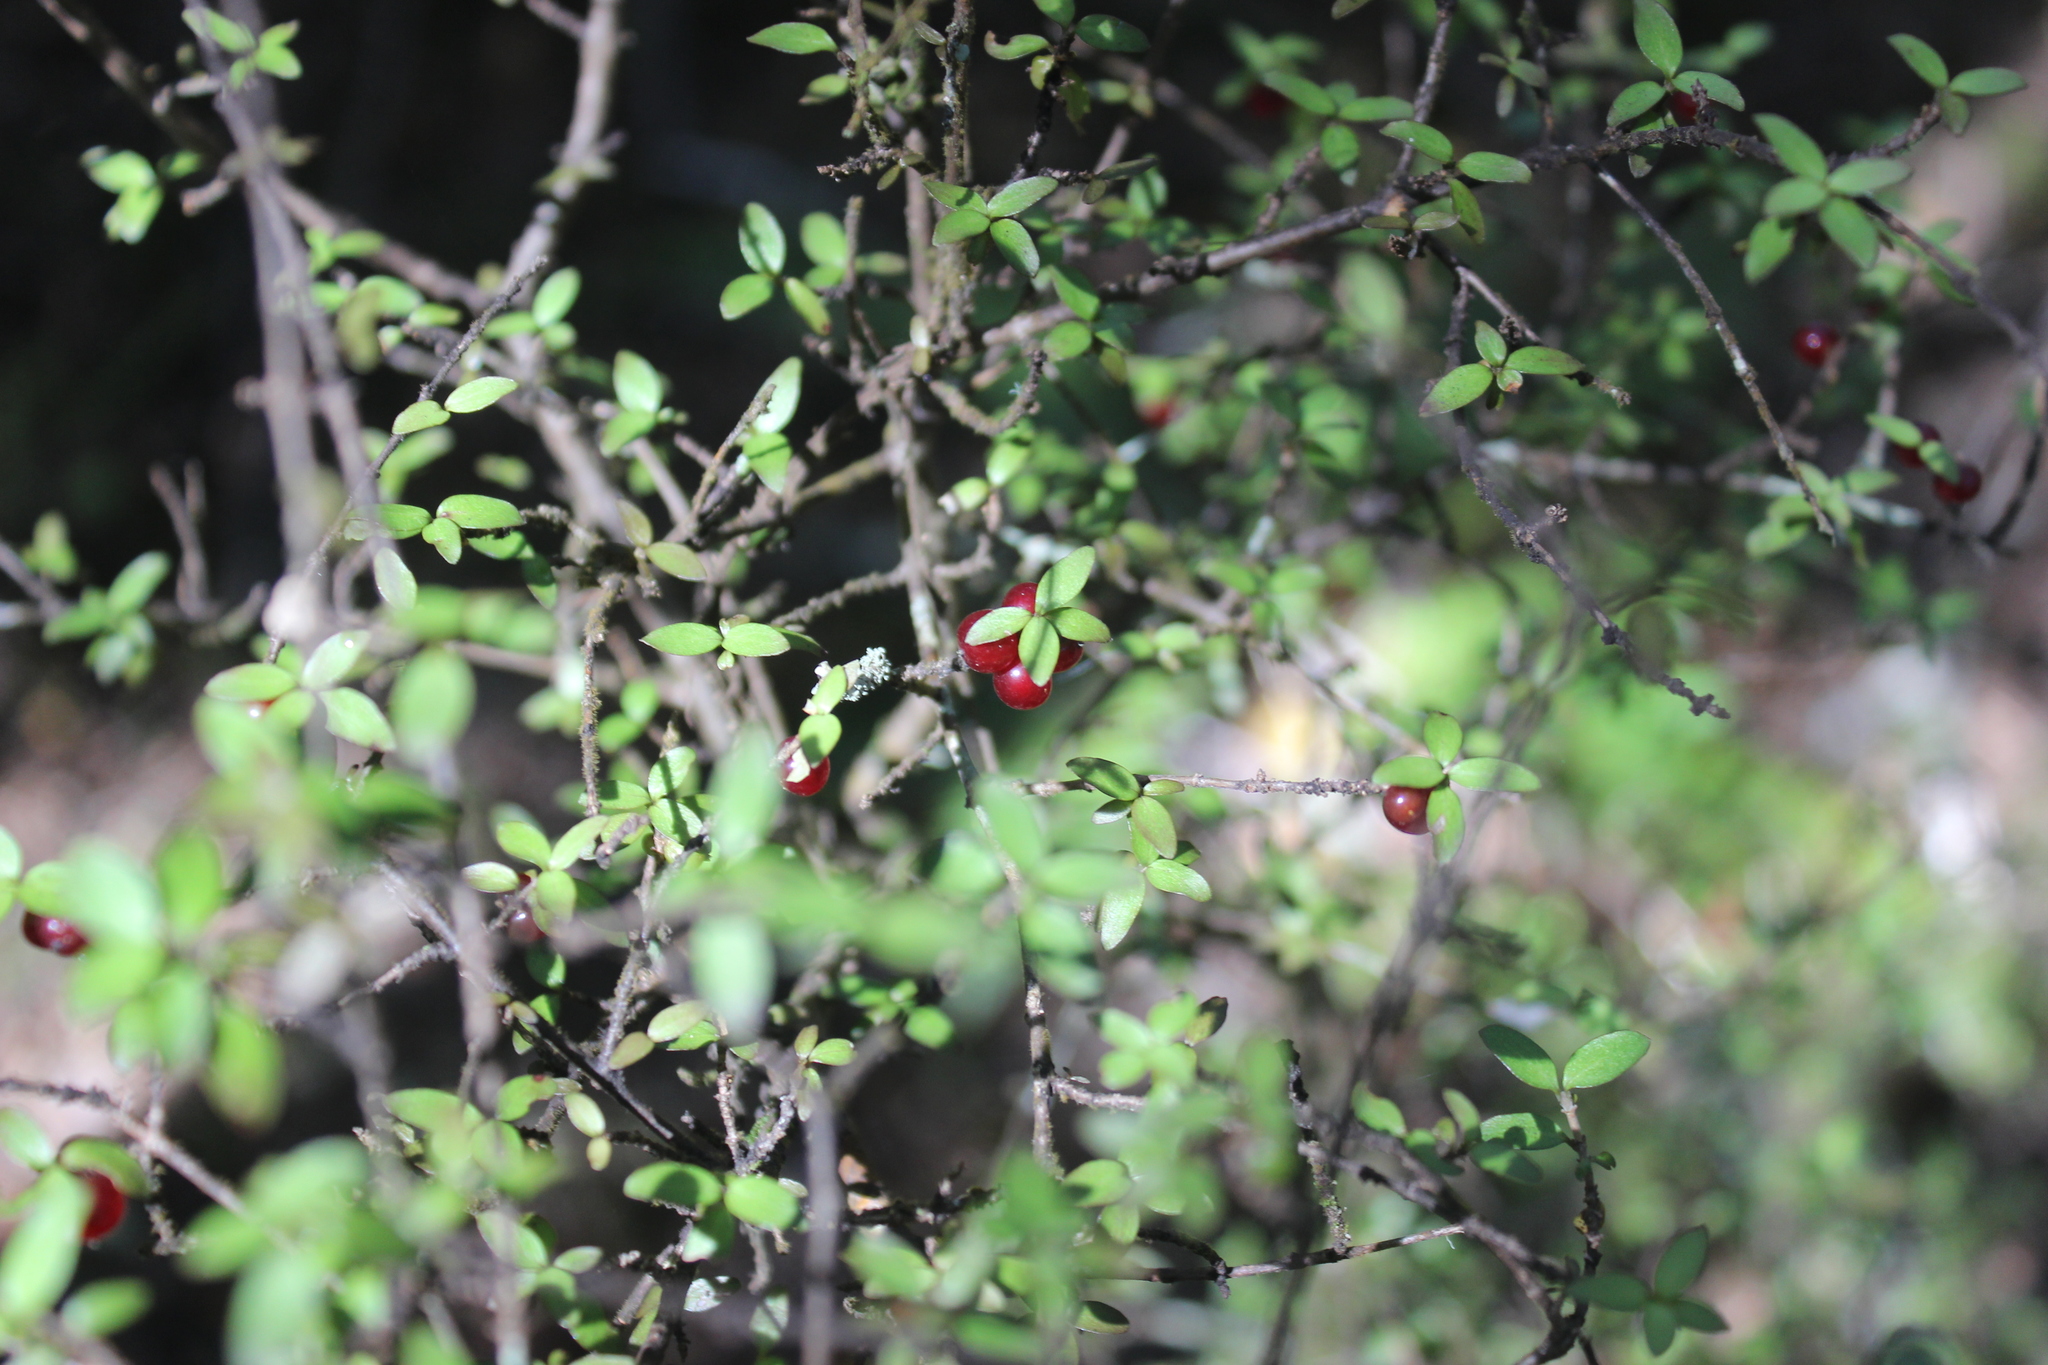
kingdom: Plantae
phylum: Tracheophyta
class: Magnoliopsida
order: Gentianales
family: Rubiaceae
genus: Coprosma
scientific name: Coprosma rhamnoides
